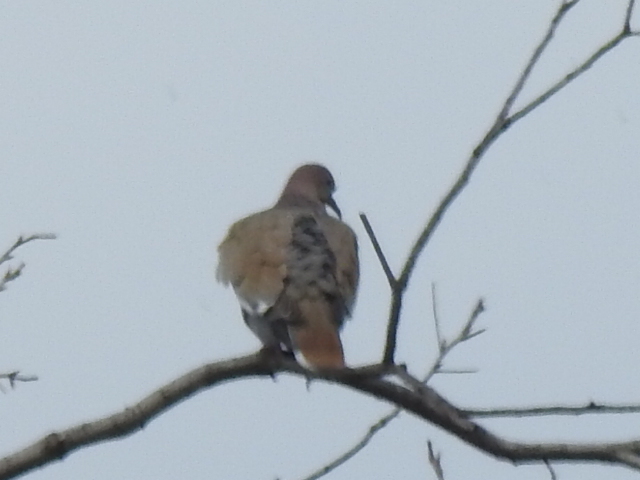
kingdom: Animalia
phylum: Chordata
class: Aves
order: Columbiformes
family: Columbidae
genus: Zenaida
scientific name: Zenaida asiatica
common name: White-winged dove
